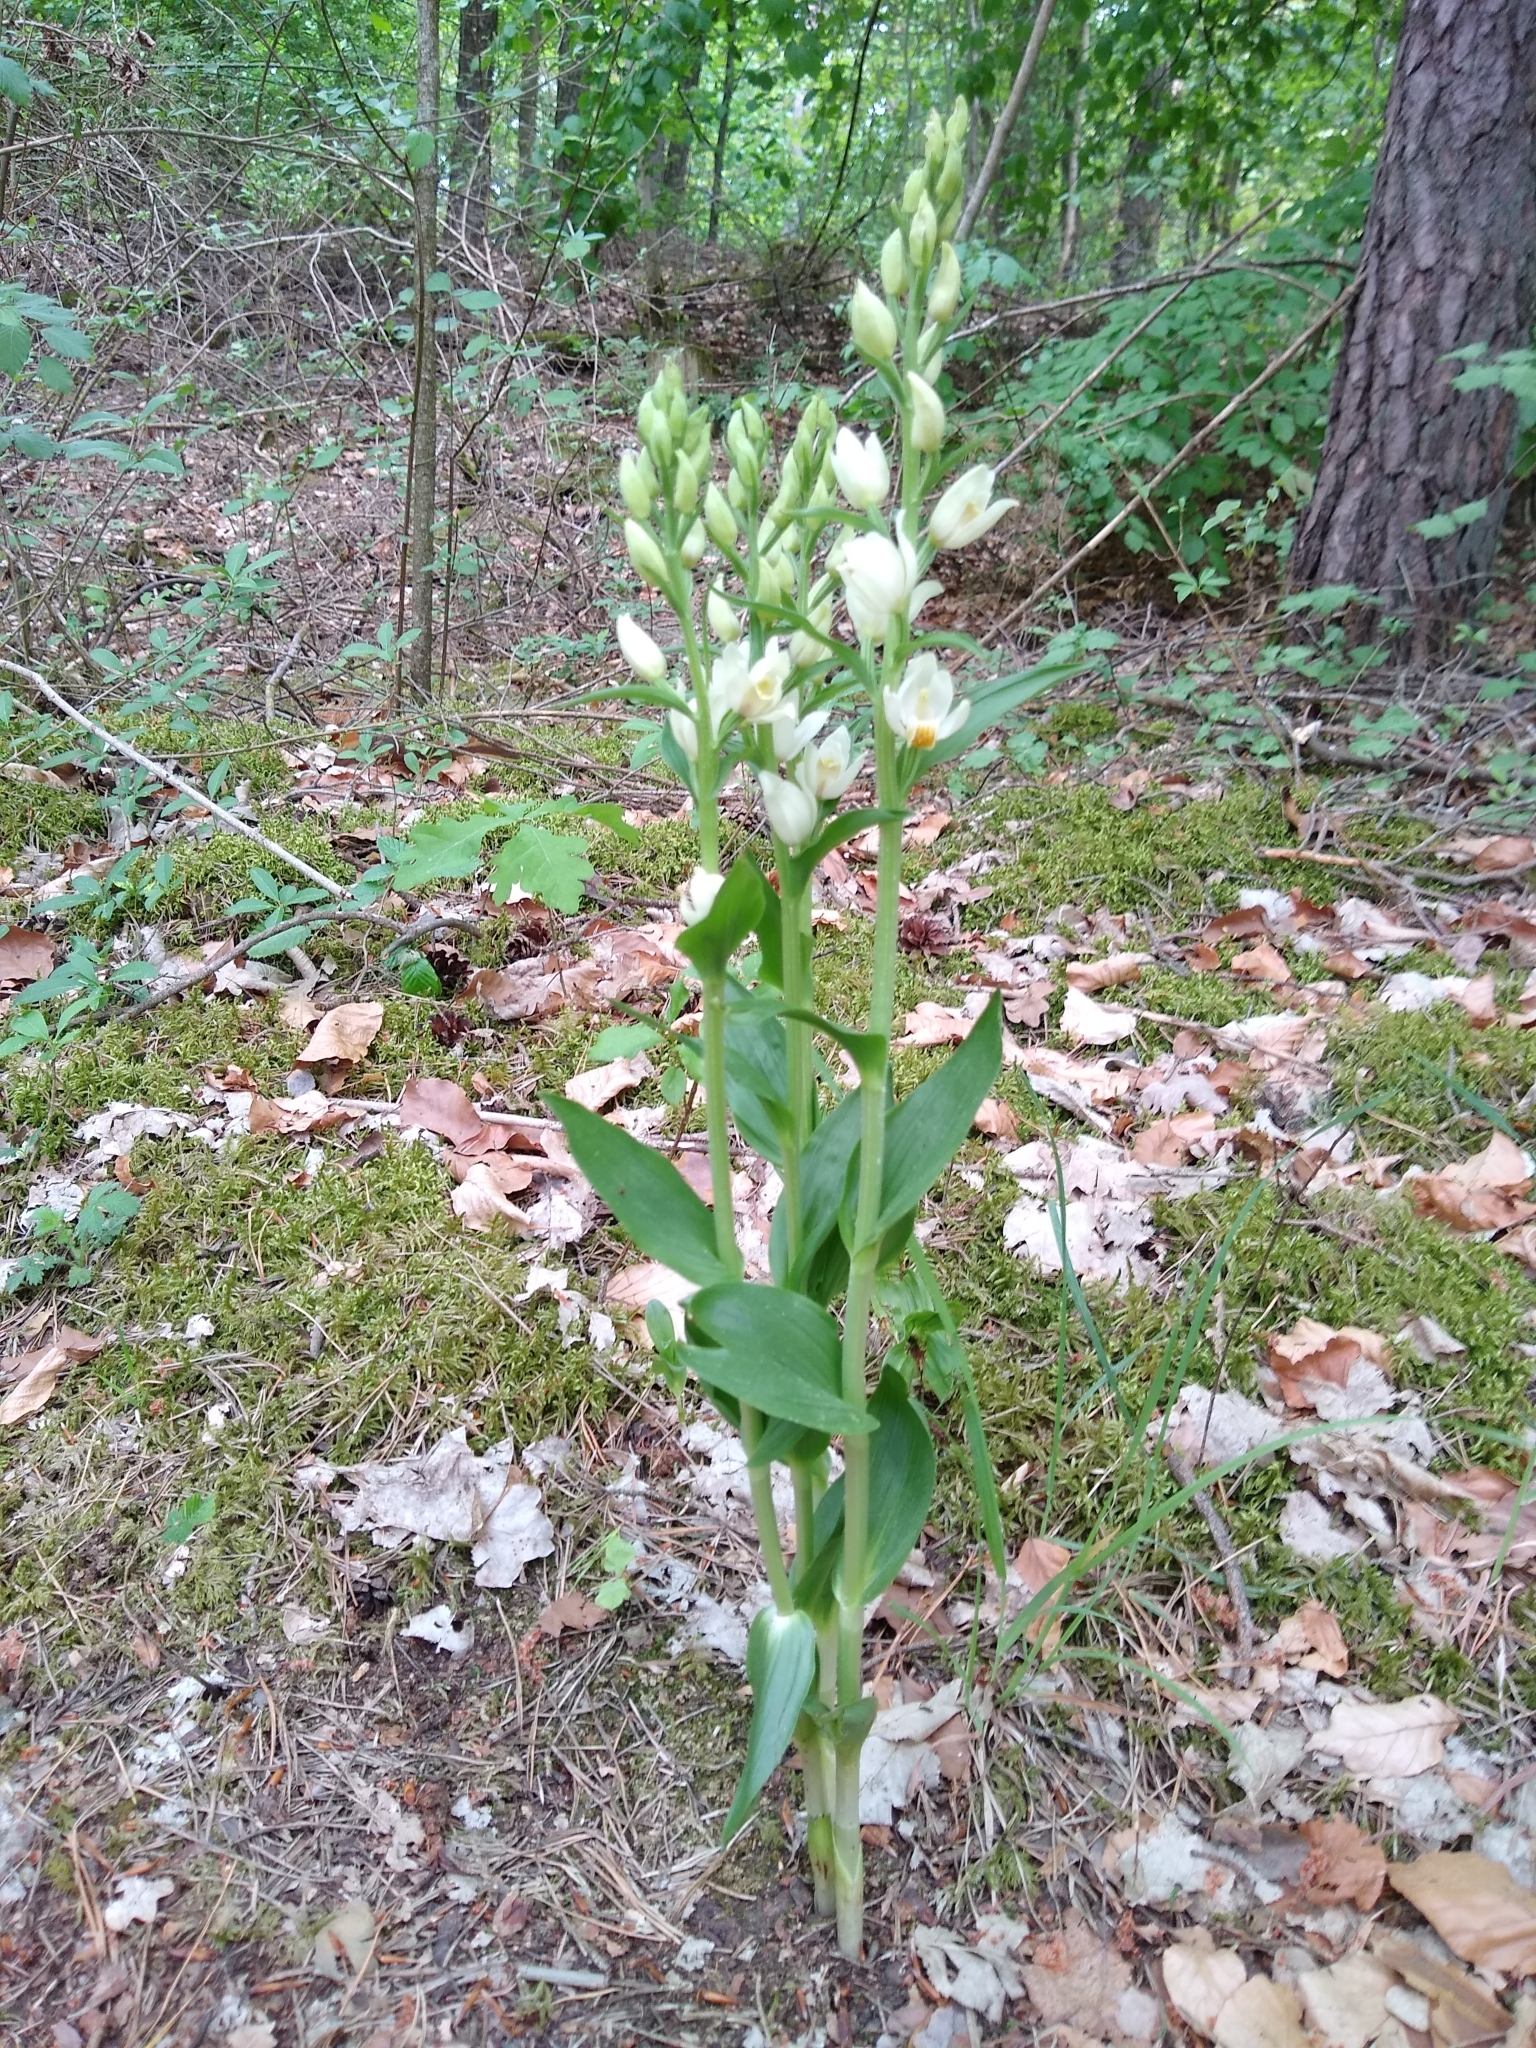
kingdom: Plantae
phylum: Tracheophyta
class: Liliopsida
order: Asparagales
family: Orchidaceae
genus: Cephalanthera
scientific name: Cephalanthera damasonium
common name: White helleborine
